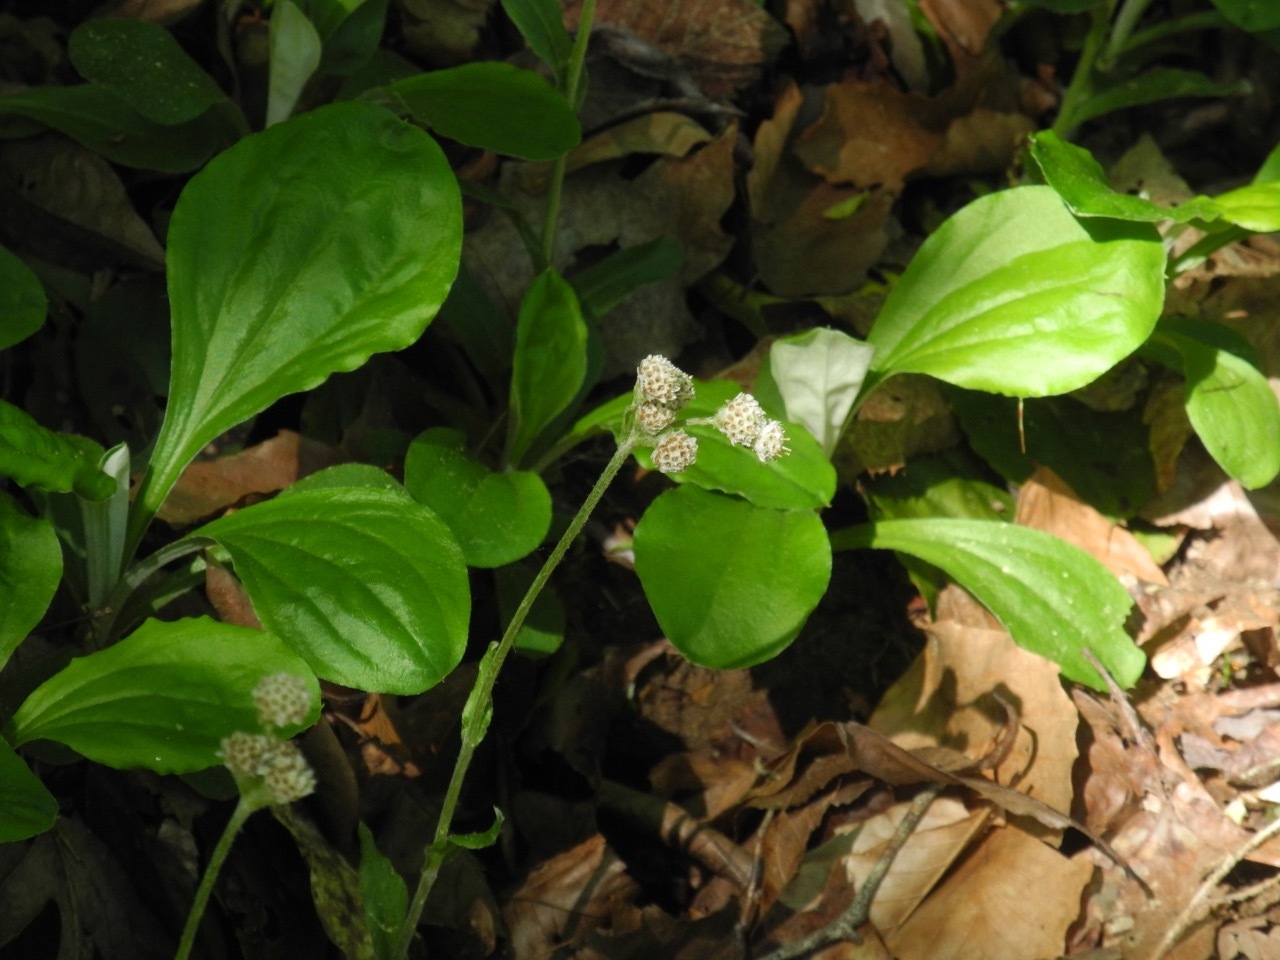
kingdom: Plantae
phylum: Tracheophyta
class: Magnoliopsida
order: Asterales
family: Asteraceae
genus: Antennaria
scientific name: Antennaria parlinii
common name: Parlin's pussytoes
